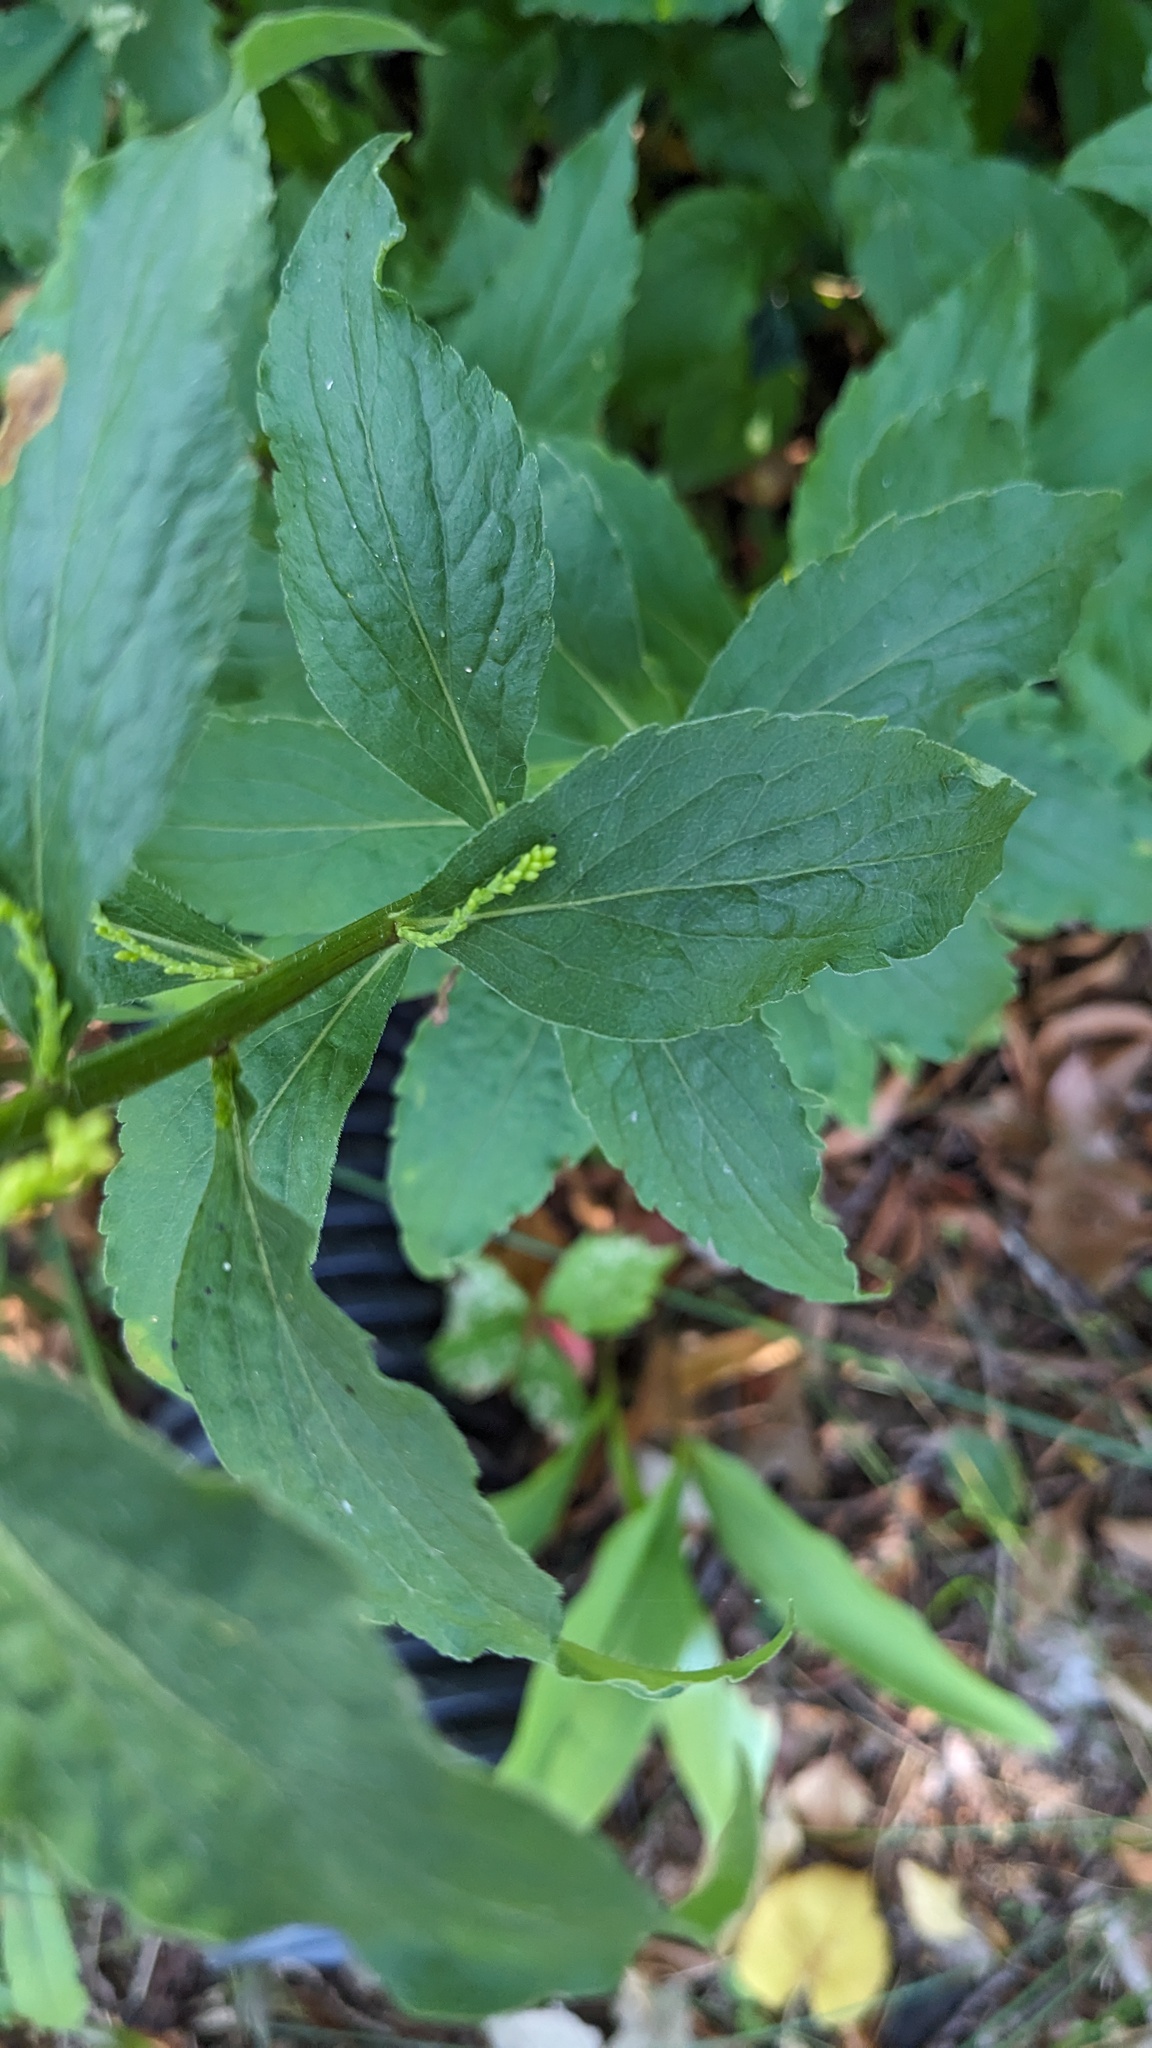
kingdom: Plantae
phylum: Tracheophyta
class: Magnoliopsida
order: Asterales
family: Asteraceae
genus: Solidago
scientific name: Solidago ulmifolia
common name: Elm-leaf goldenrod
